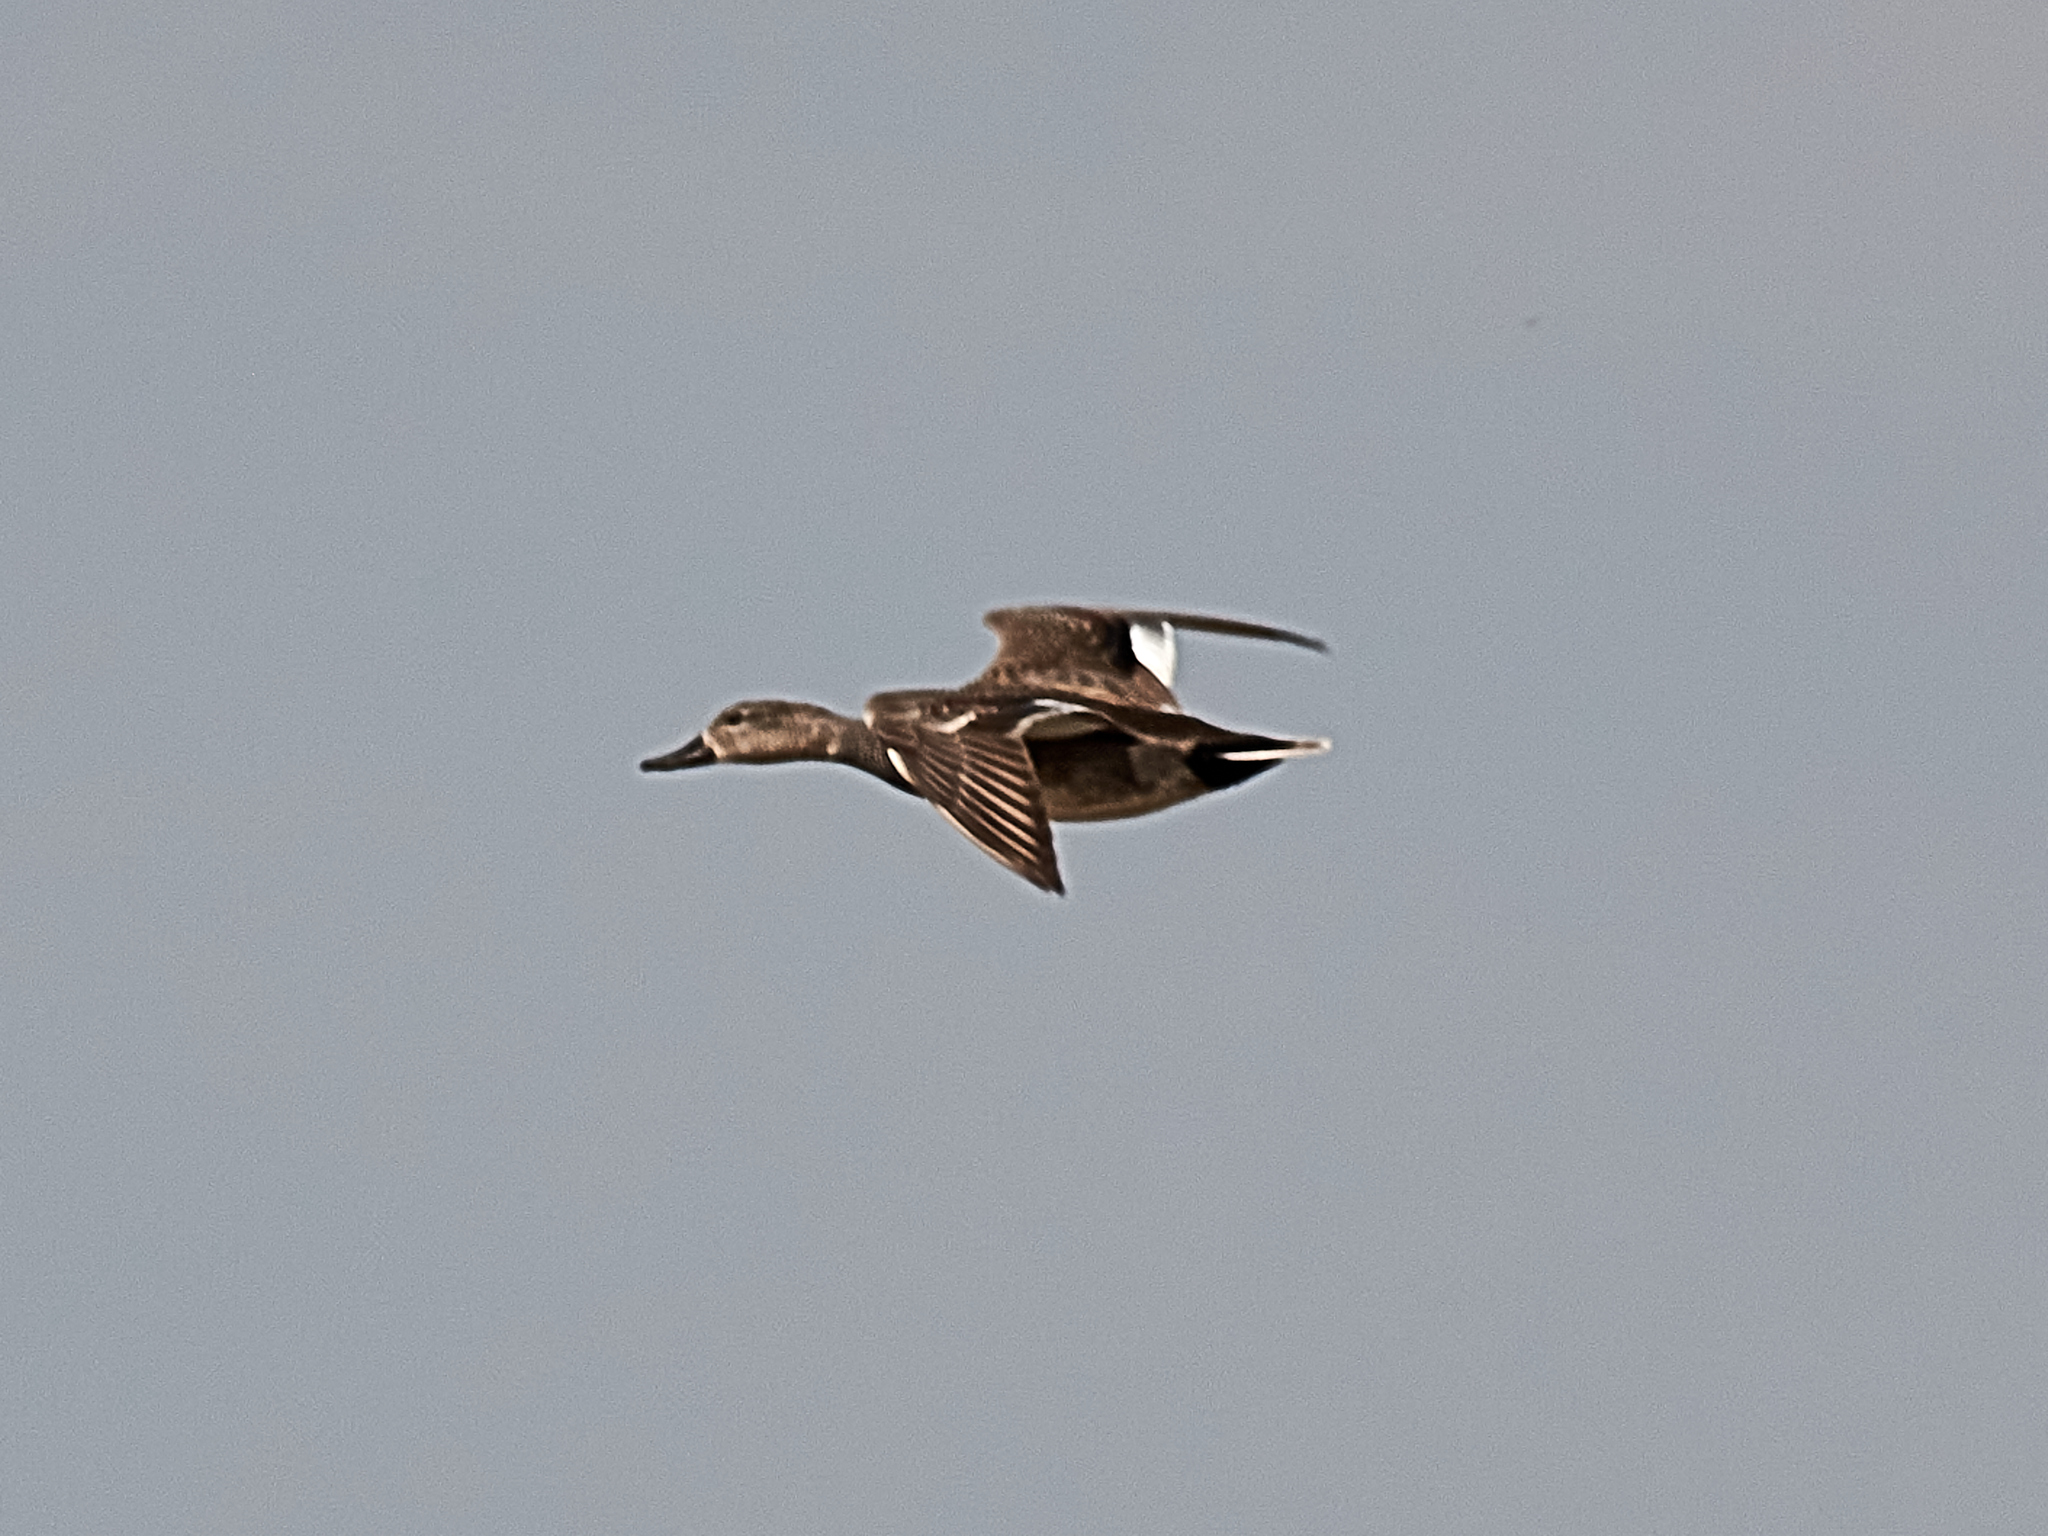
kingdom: Animalia
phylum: Chordata
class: Aves
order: Anseriformes
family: Anatidae
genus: Mareca
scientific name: Mareca strepera
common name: Gadwall
